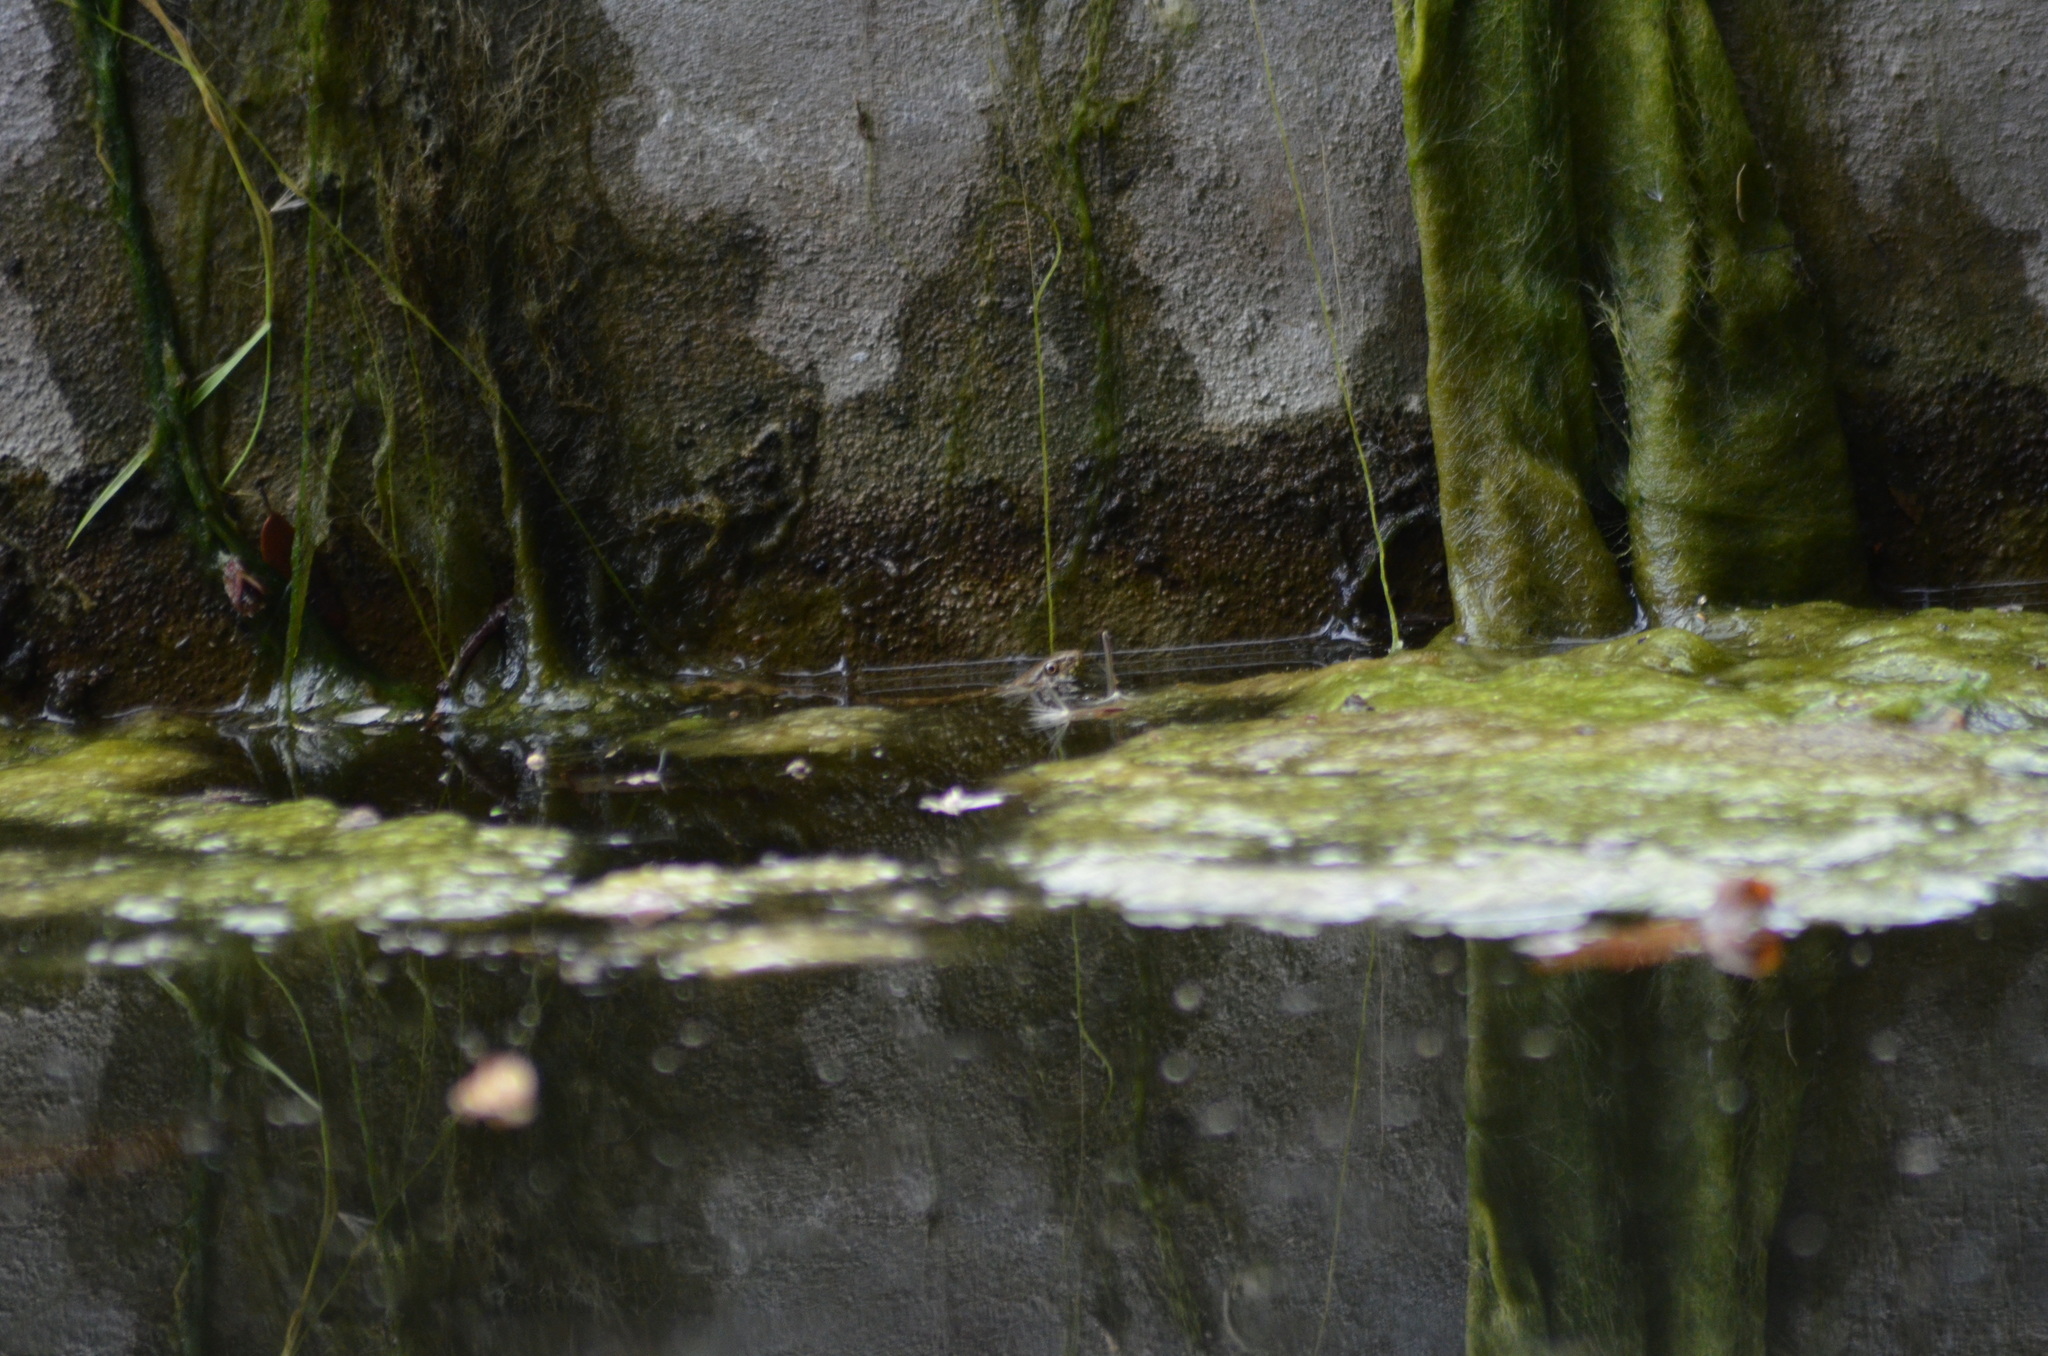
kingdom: Animalia
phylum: Chordata
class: Squamata
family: Colubridae
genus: Natrix
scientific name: Natrix maura
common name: Viperine water snake
